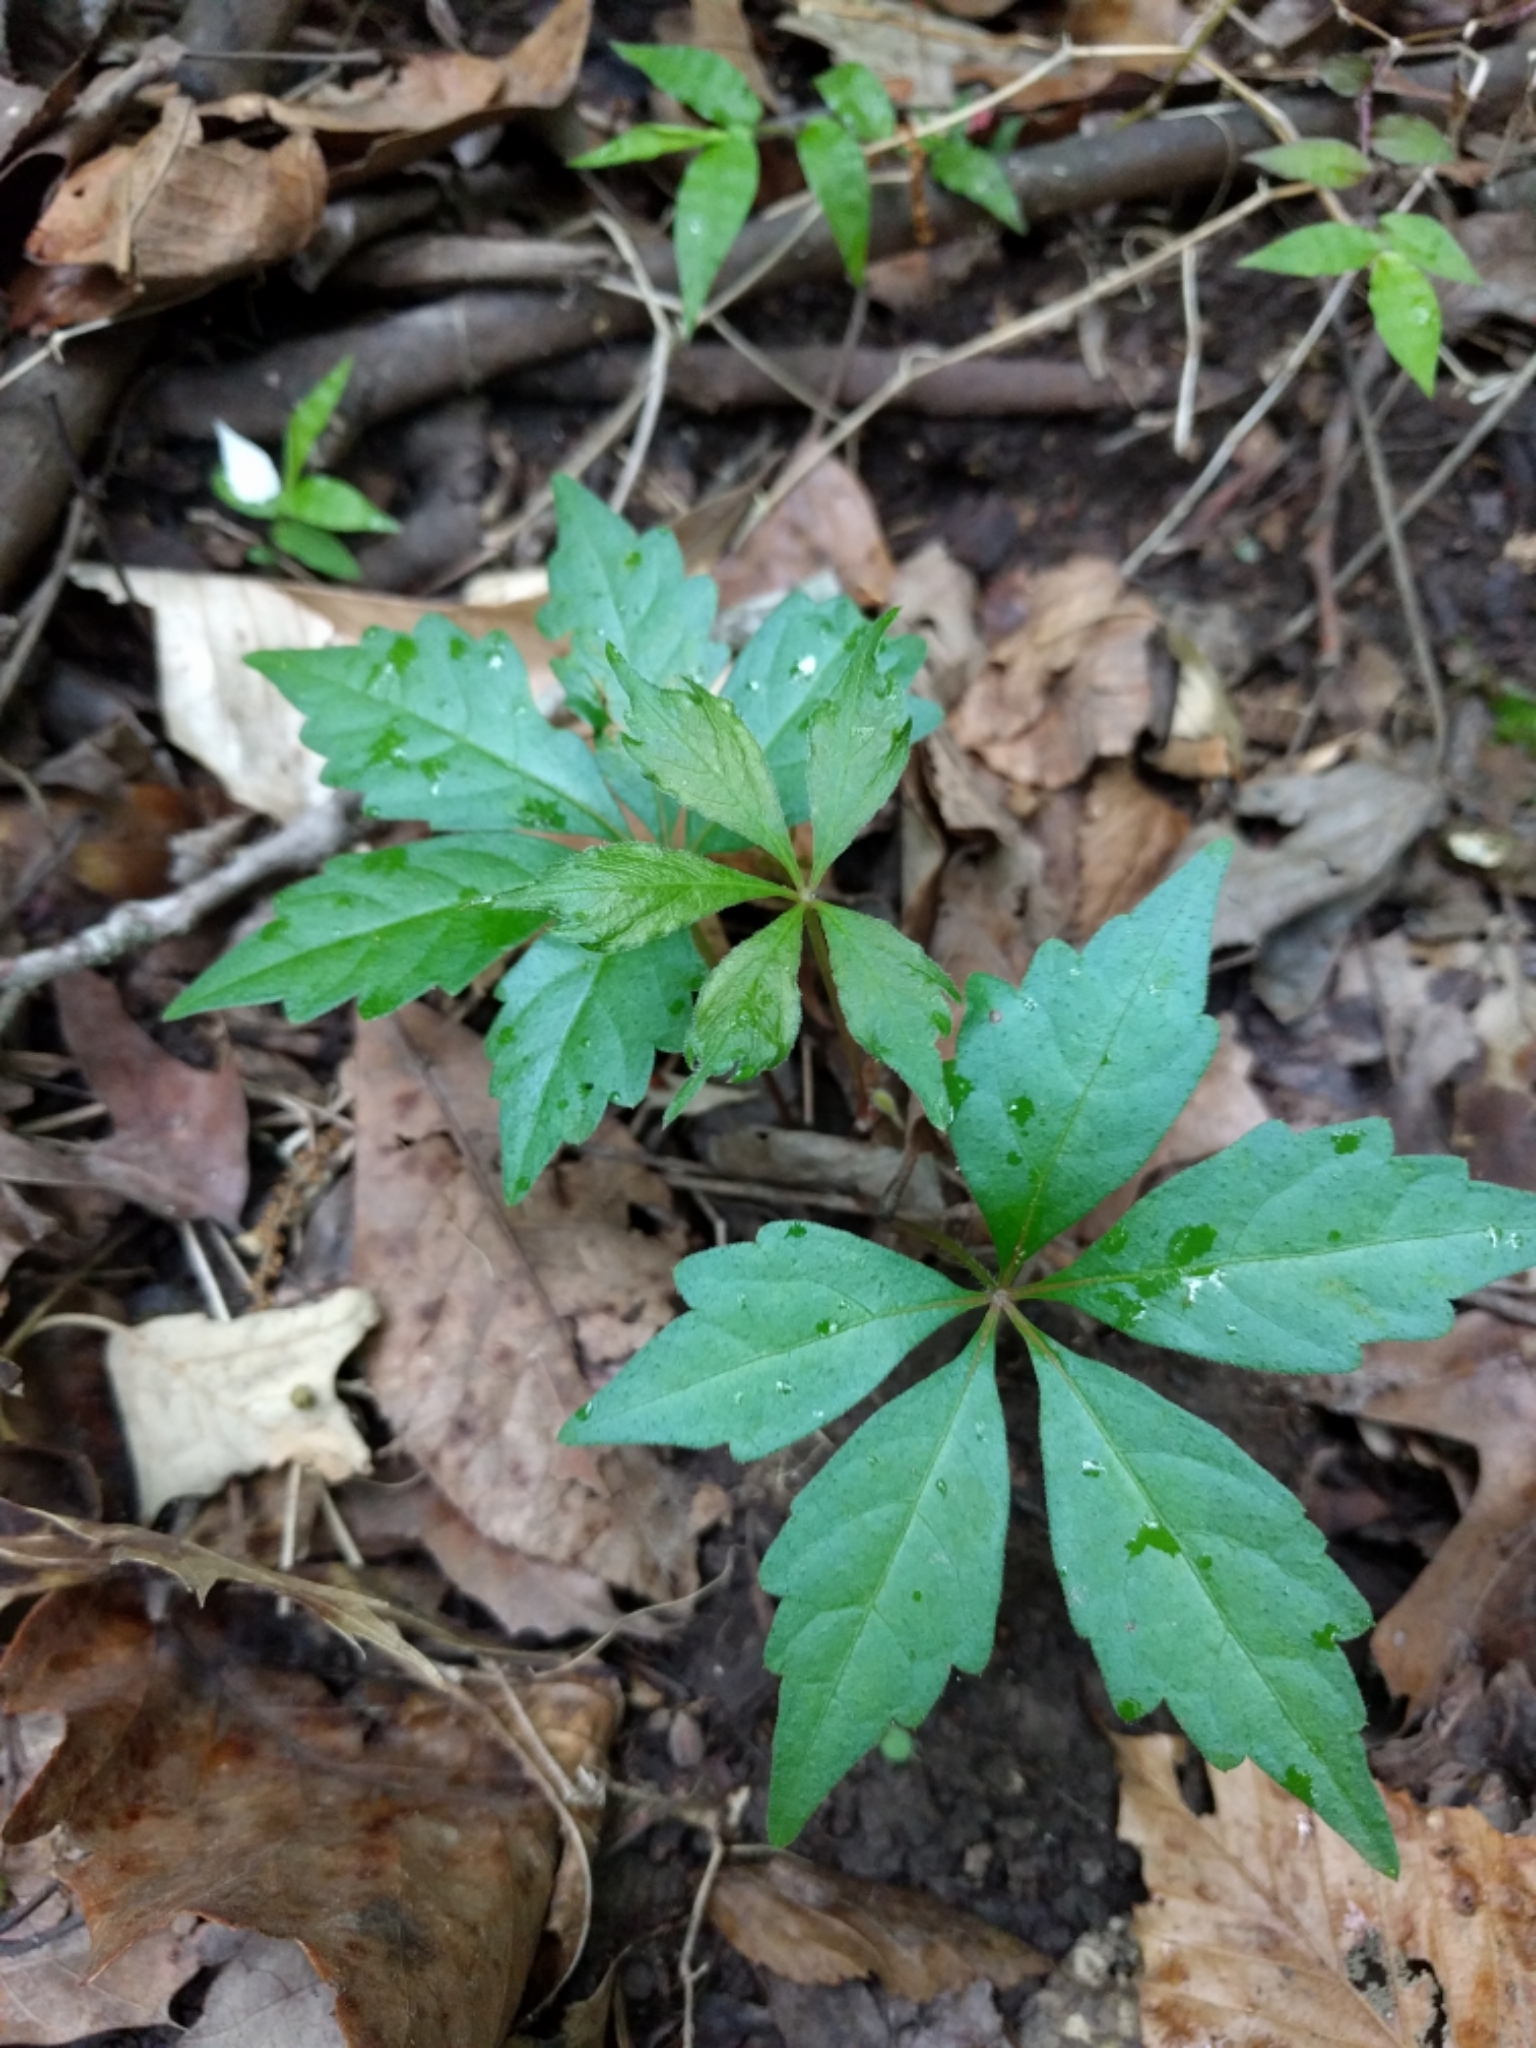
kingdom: Plantae
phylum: Tracheophyta
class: Magnoliopsida
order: Vitales
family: Vitaceae
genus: Parthenocissus
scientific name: Parthenocissus quinquefolia
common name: Virginia-creeper
